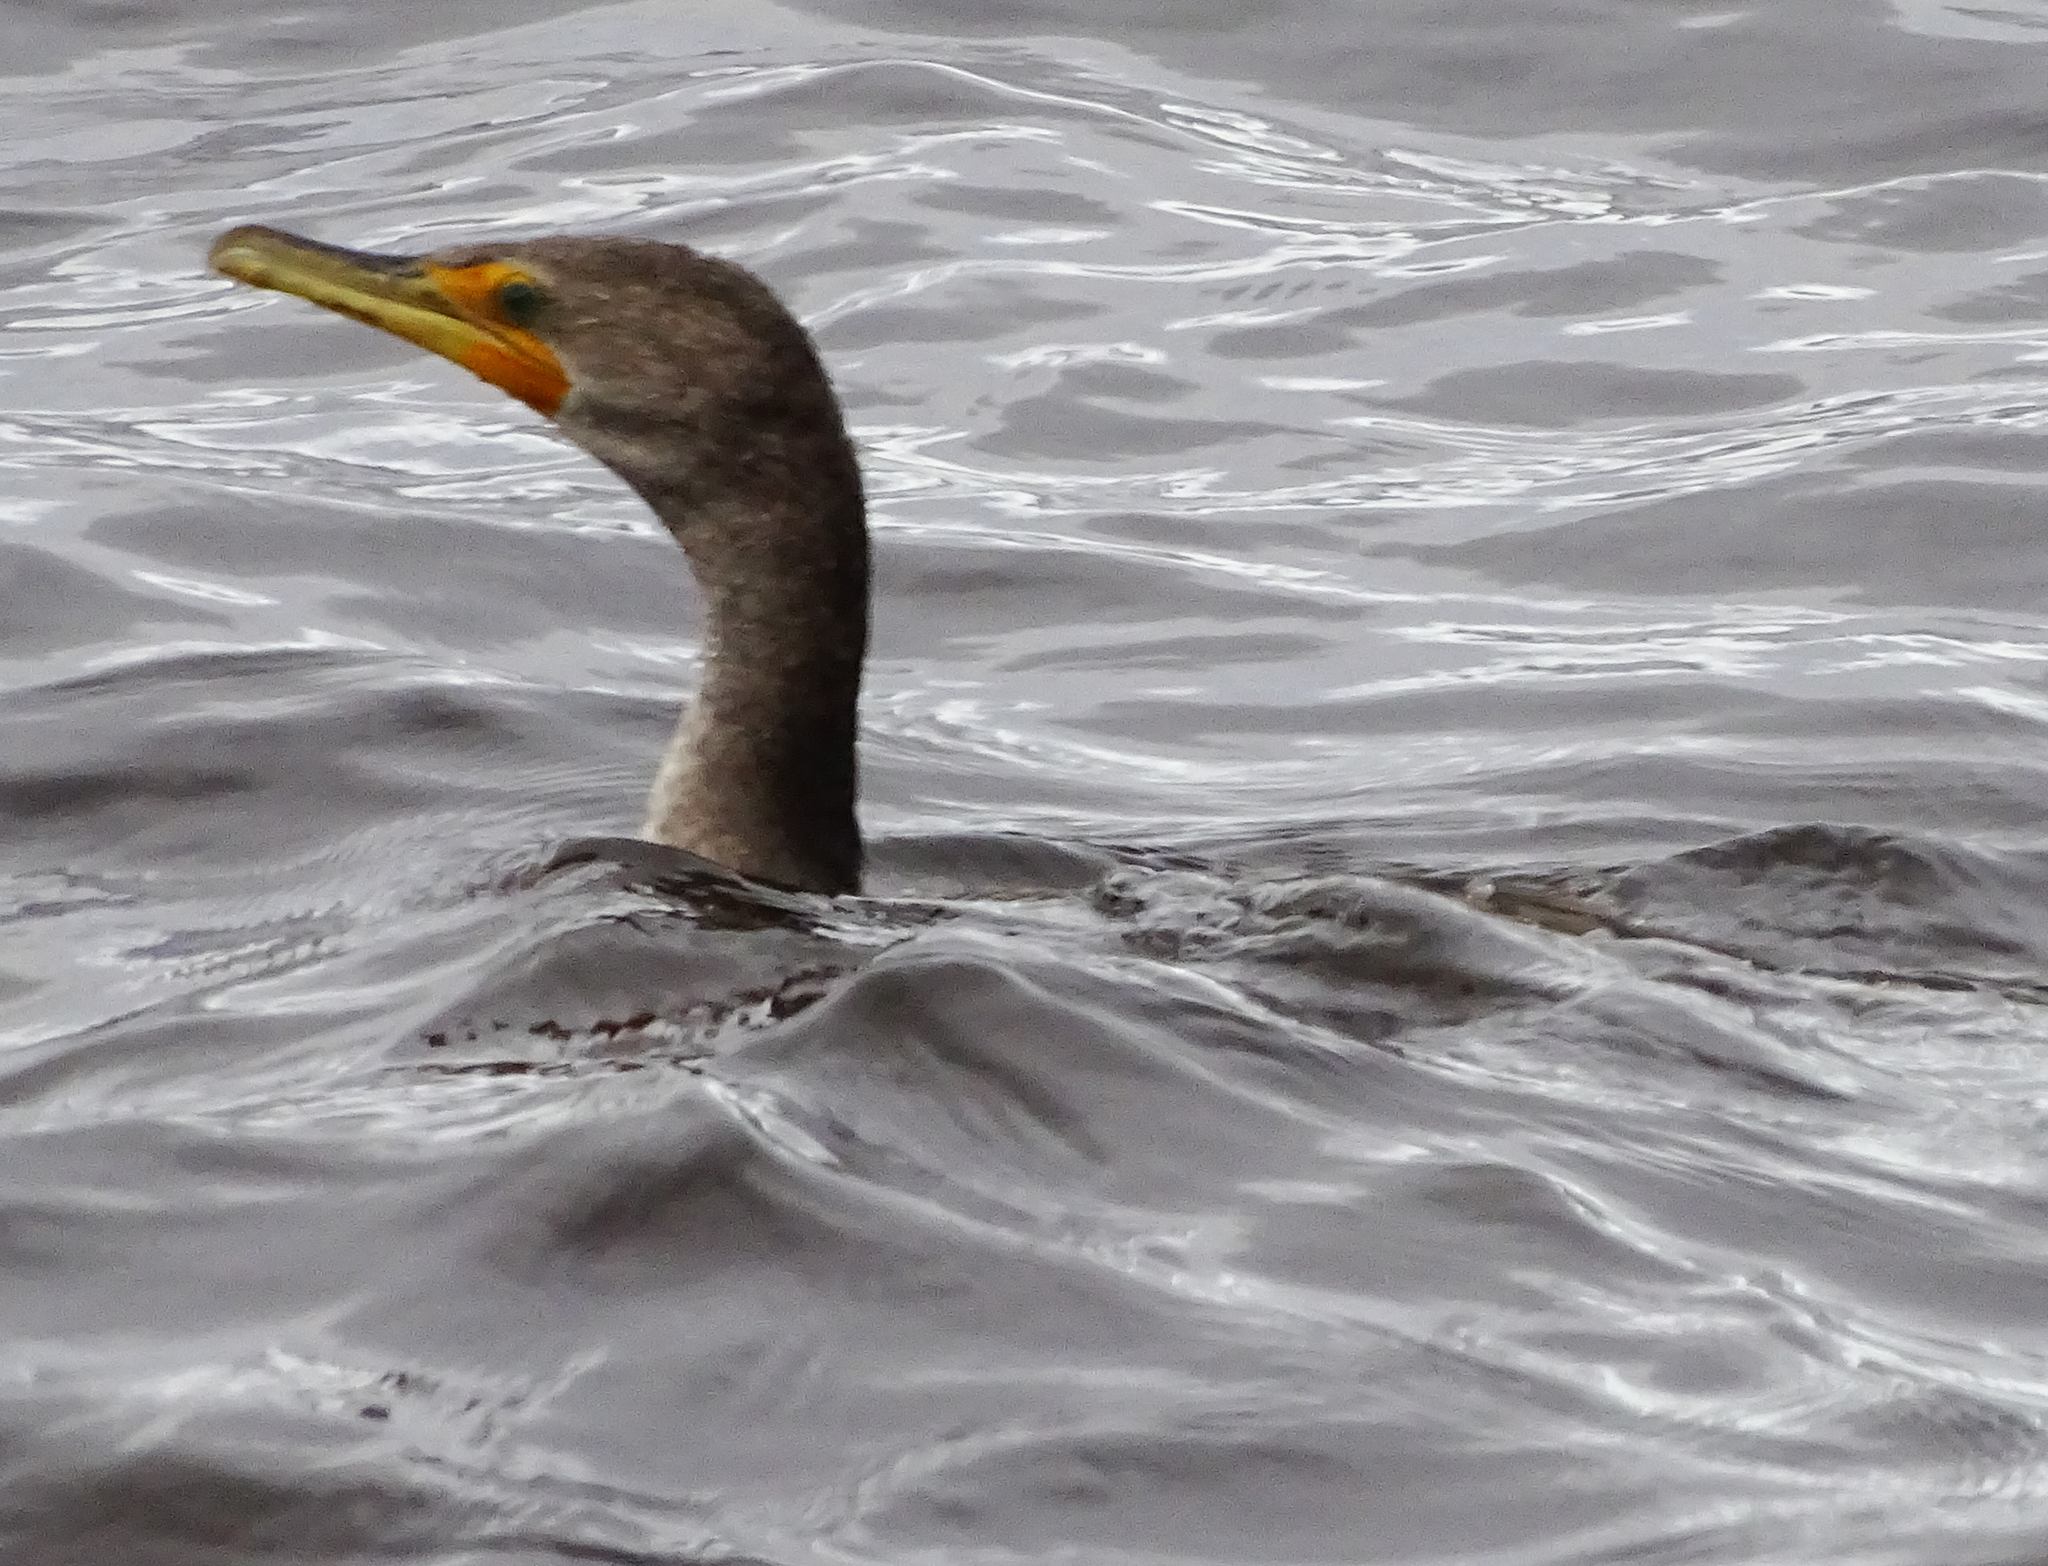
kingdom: Animalia
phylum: Chordata
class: Aves
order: Suliformes
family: Phalacrocoracidae
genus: Phalacrocorax
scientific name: Phalacrocorax auritus
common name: Double-crested cormorant
